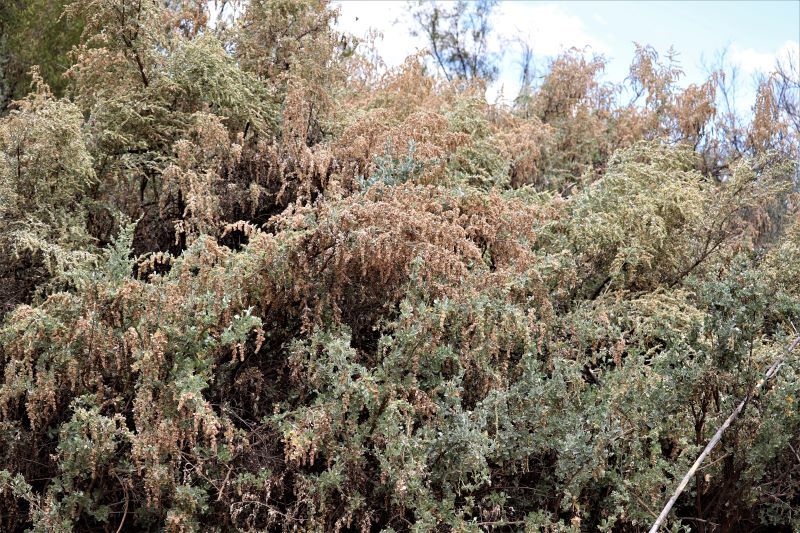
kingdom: Plantae
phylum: Tracheophyta
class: Magnoliopsida
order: Caryophyllales
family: Amaranthaceae
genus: Atriplex
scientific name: Atriplex nummularia
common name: Bluegreen saltbush
